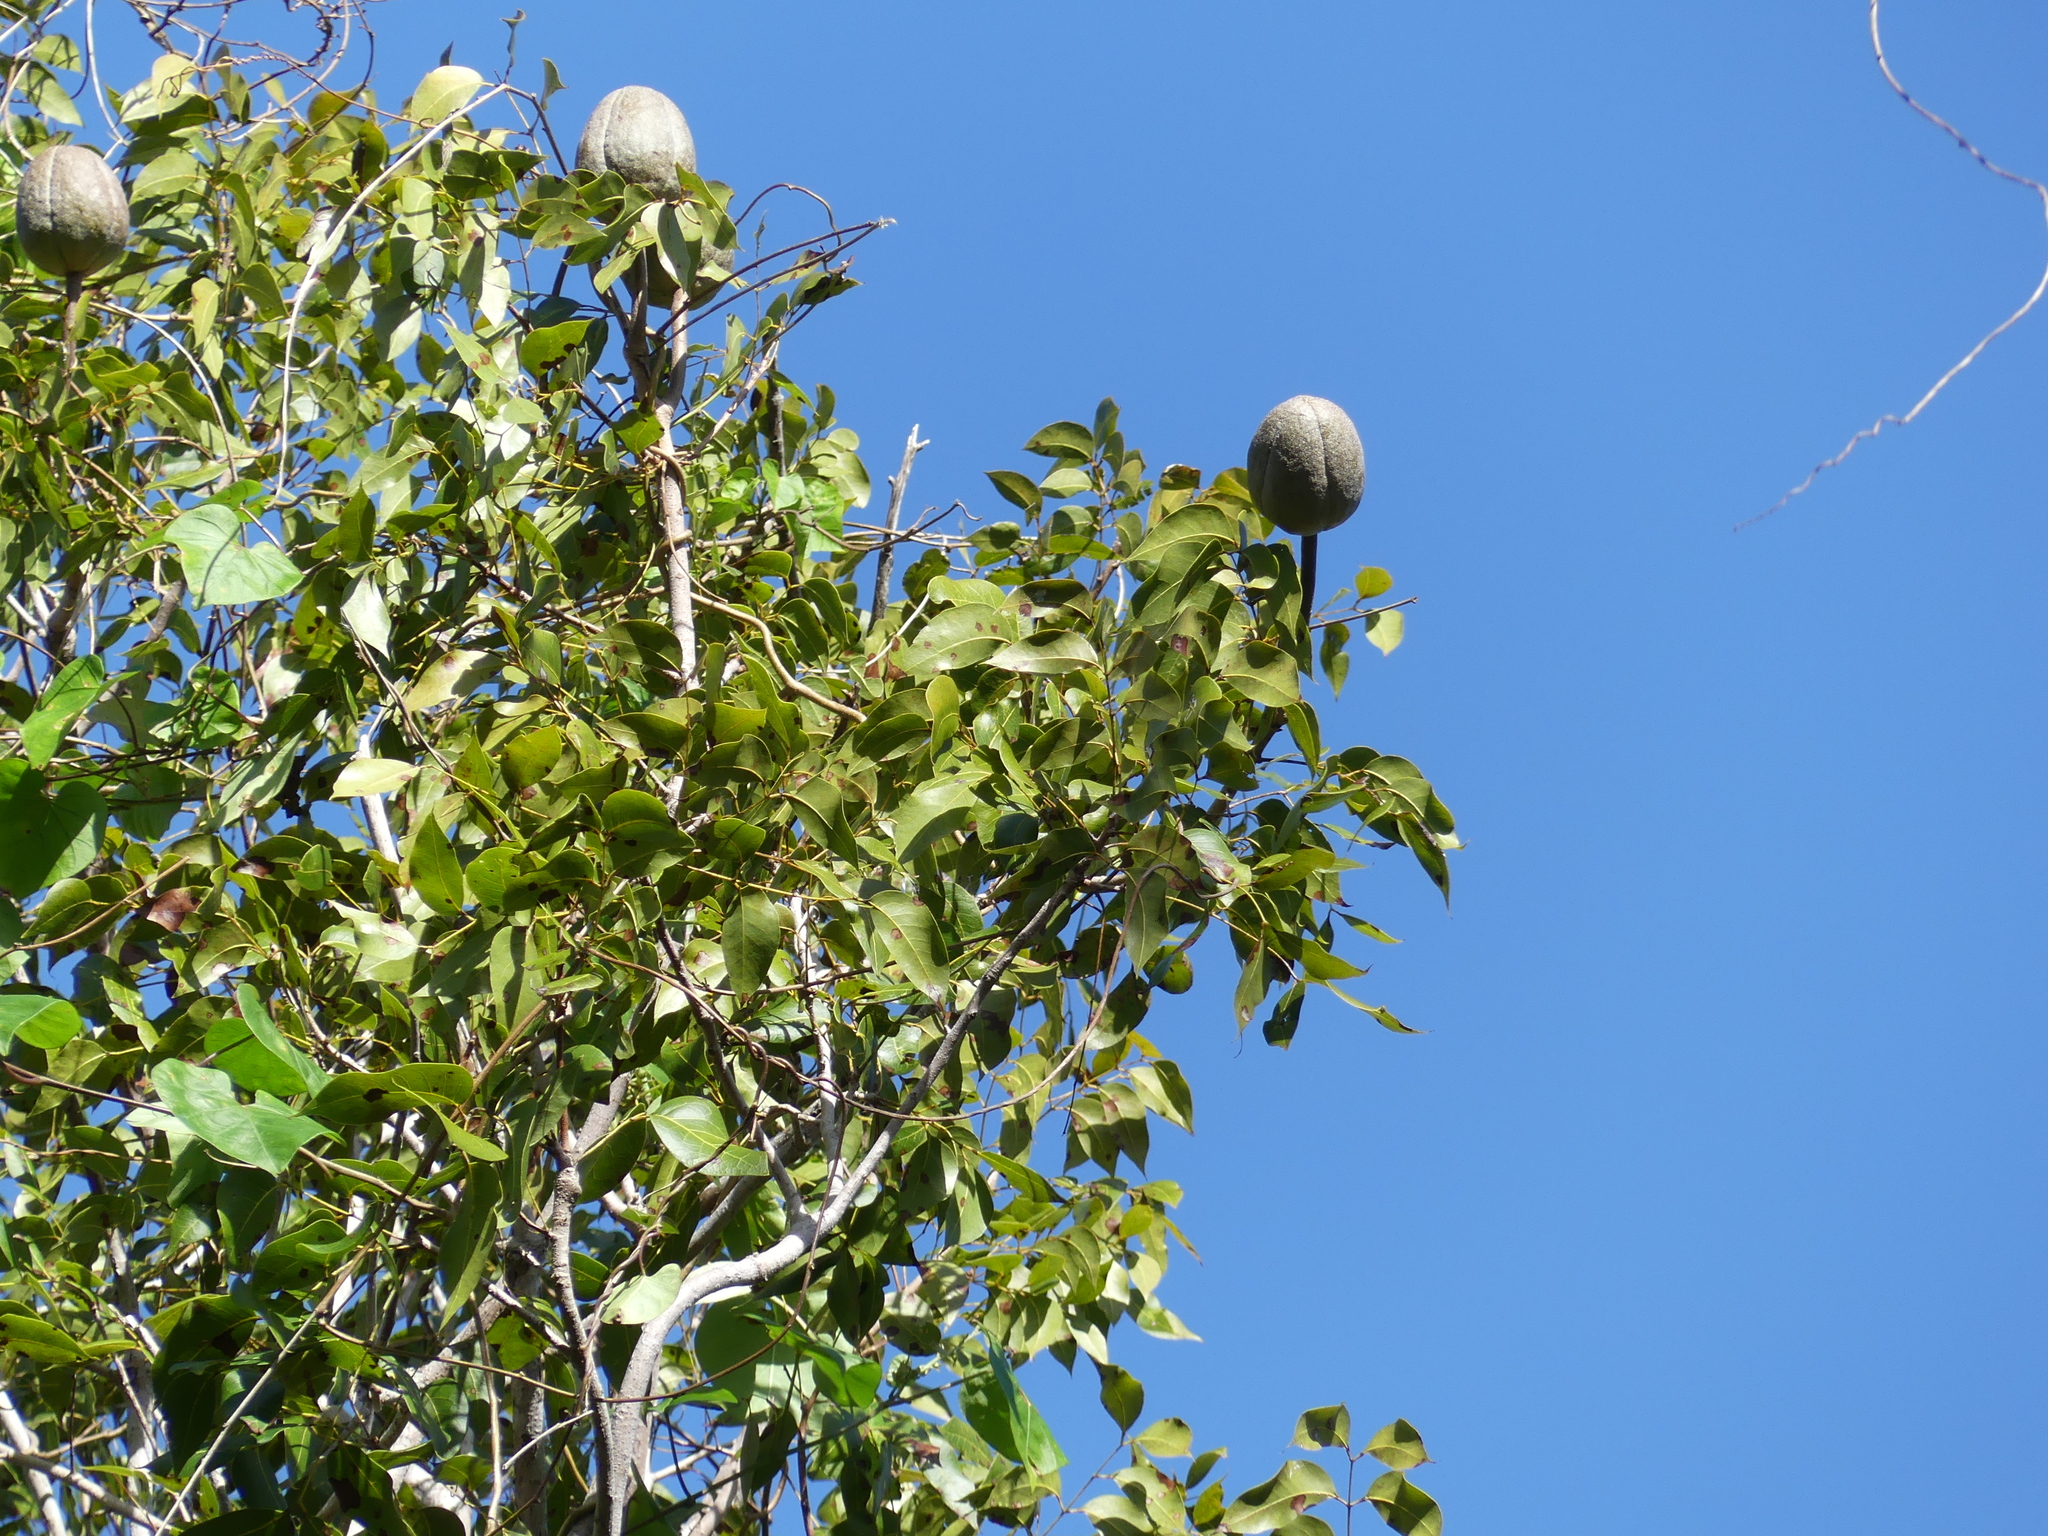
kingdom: Plantae
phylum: Tracheophyta
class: Magnoliopsida
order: Sapindales
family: Meliaceae
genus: Swietenia
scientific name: Swietenia mahagoni
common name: West indian mahogany
